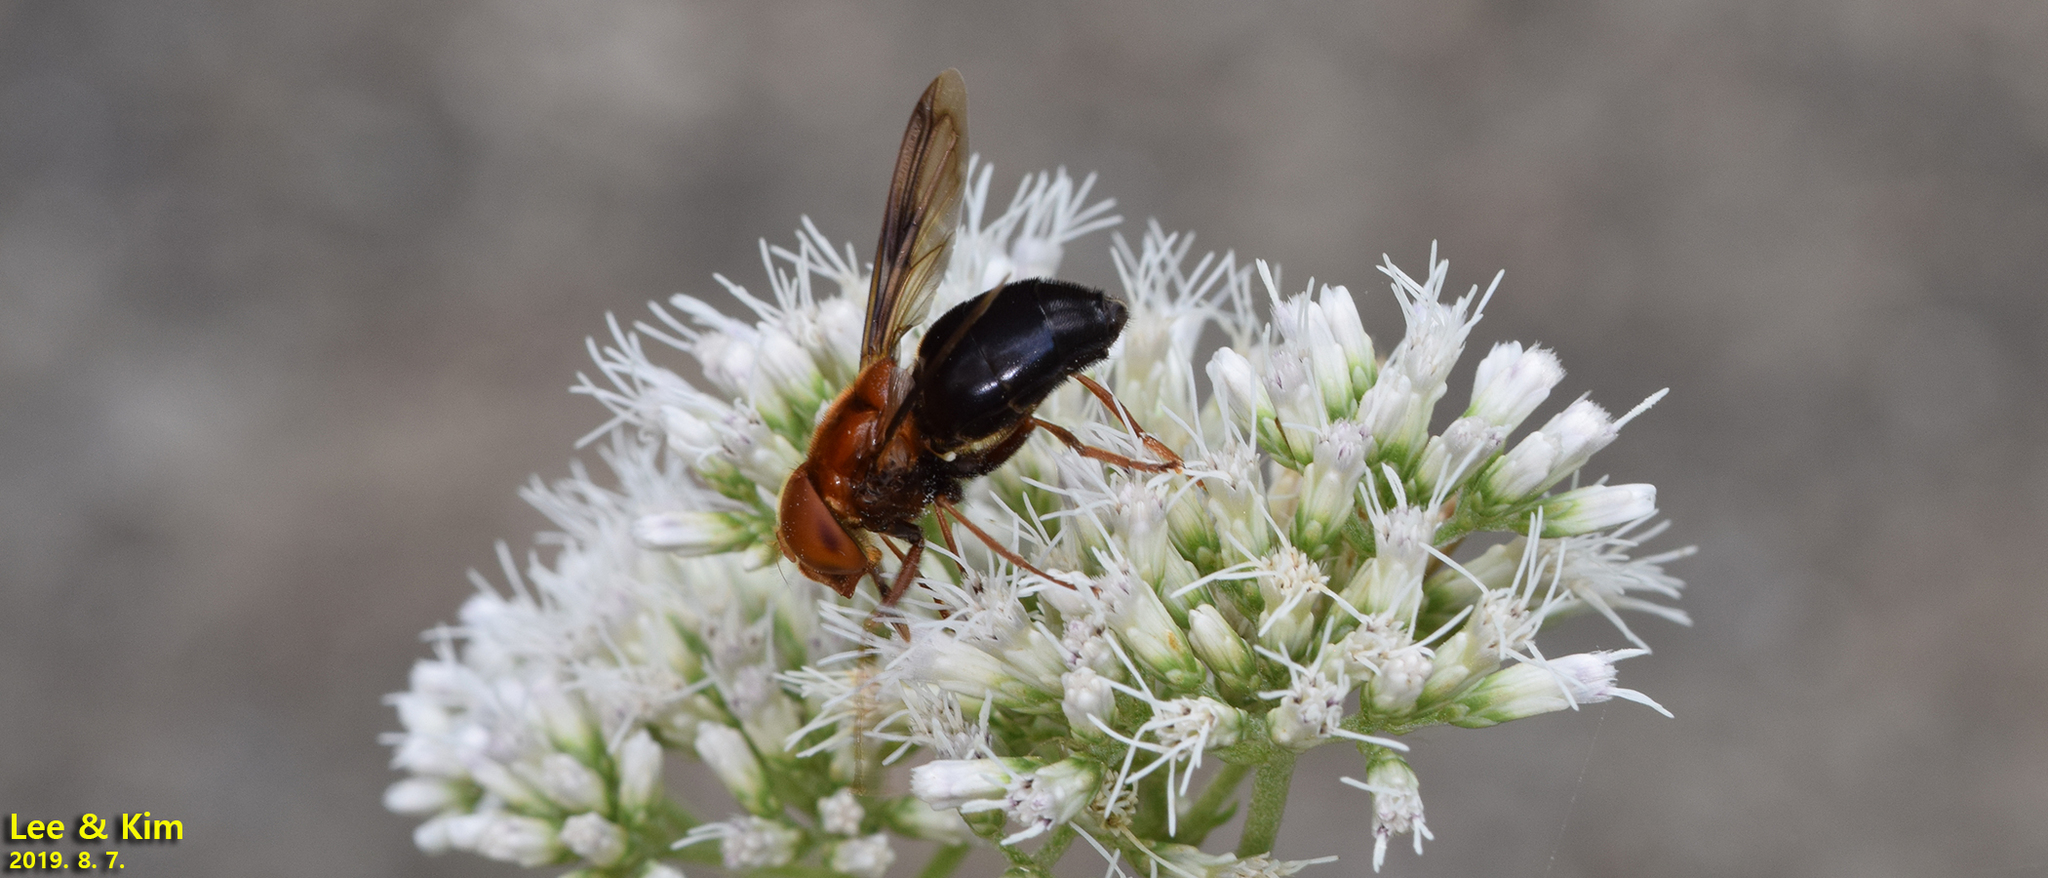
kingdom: Animalia
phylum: Arthropoda
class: Insecta
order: Diptera
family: Syrphidae
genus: Volucella
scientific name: Volucella linearis
